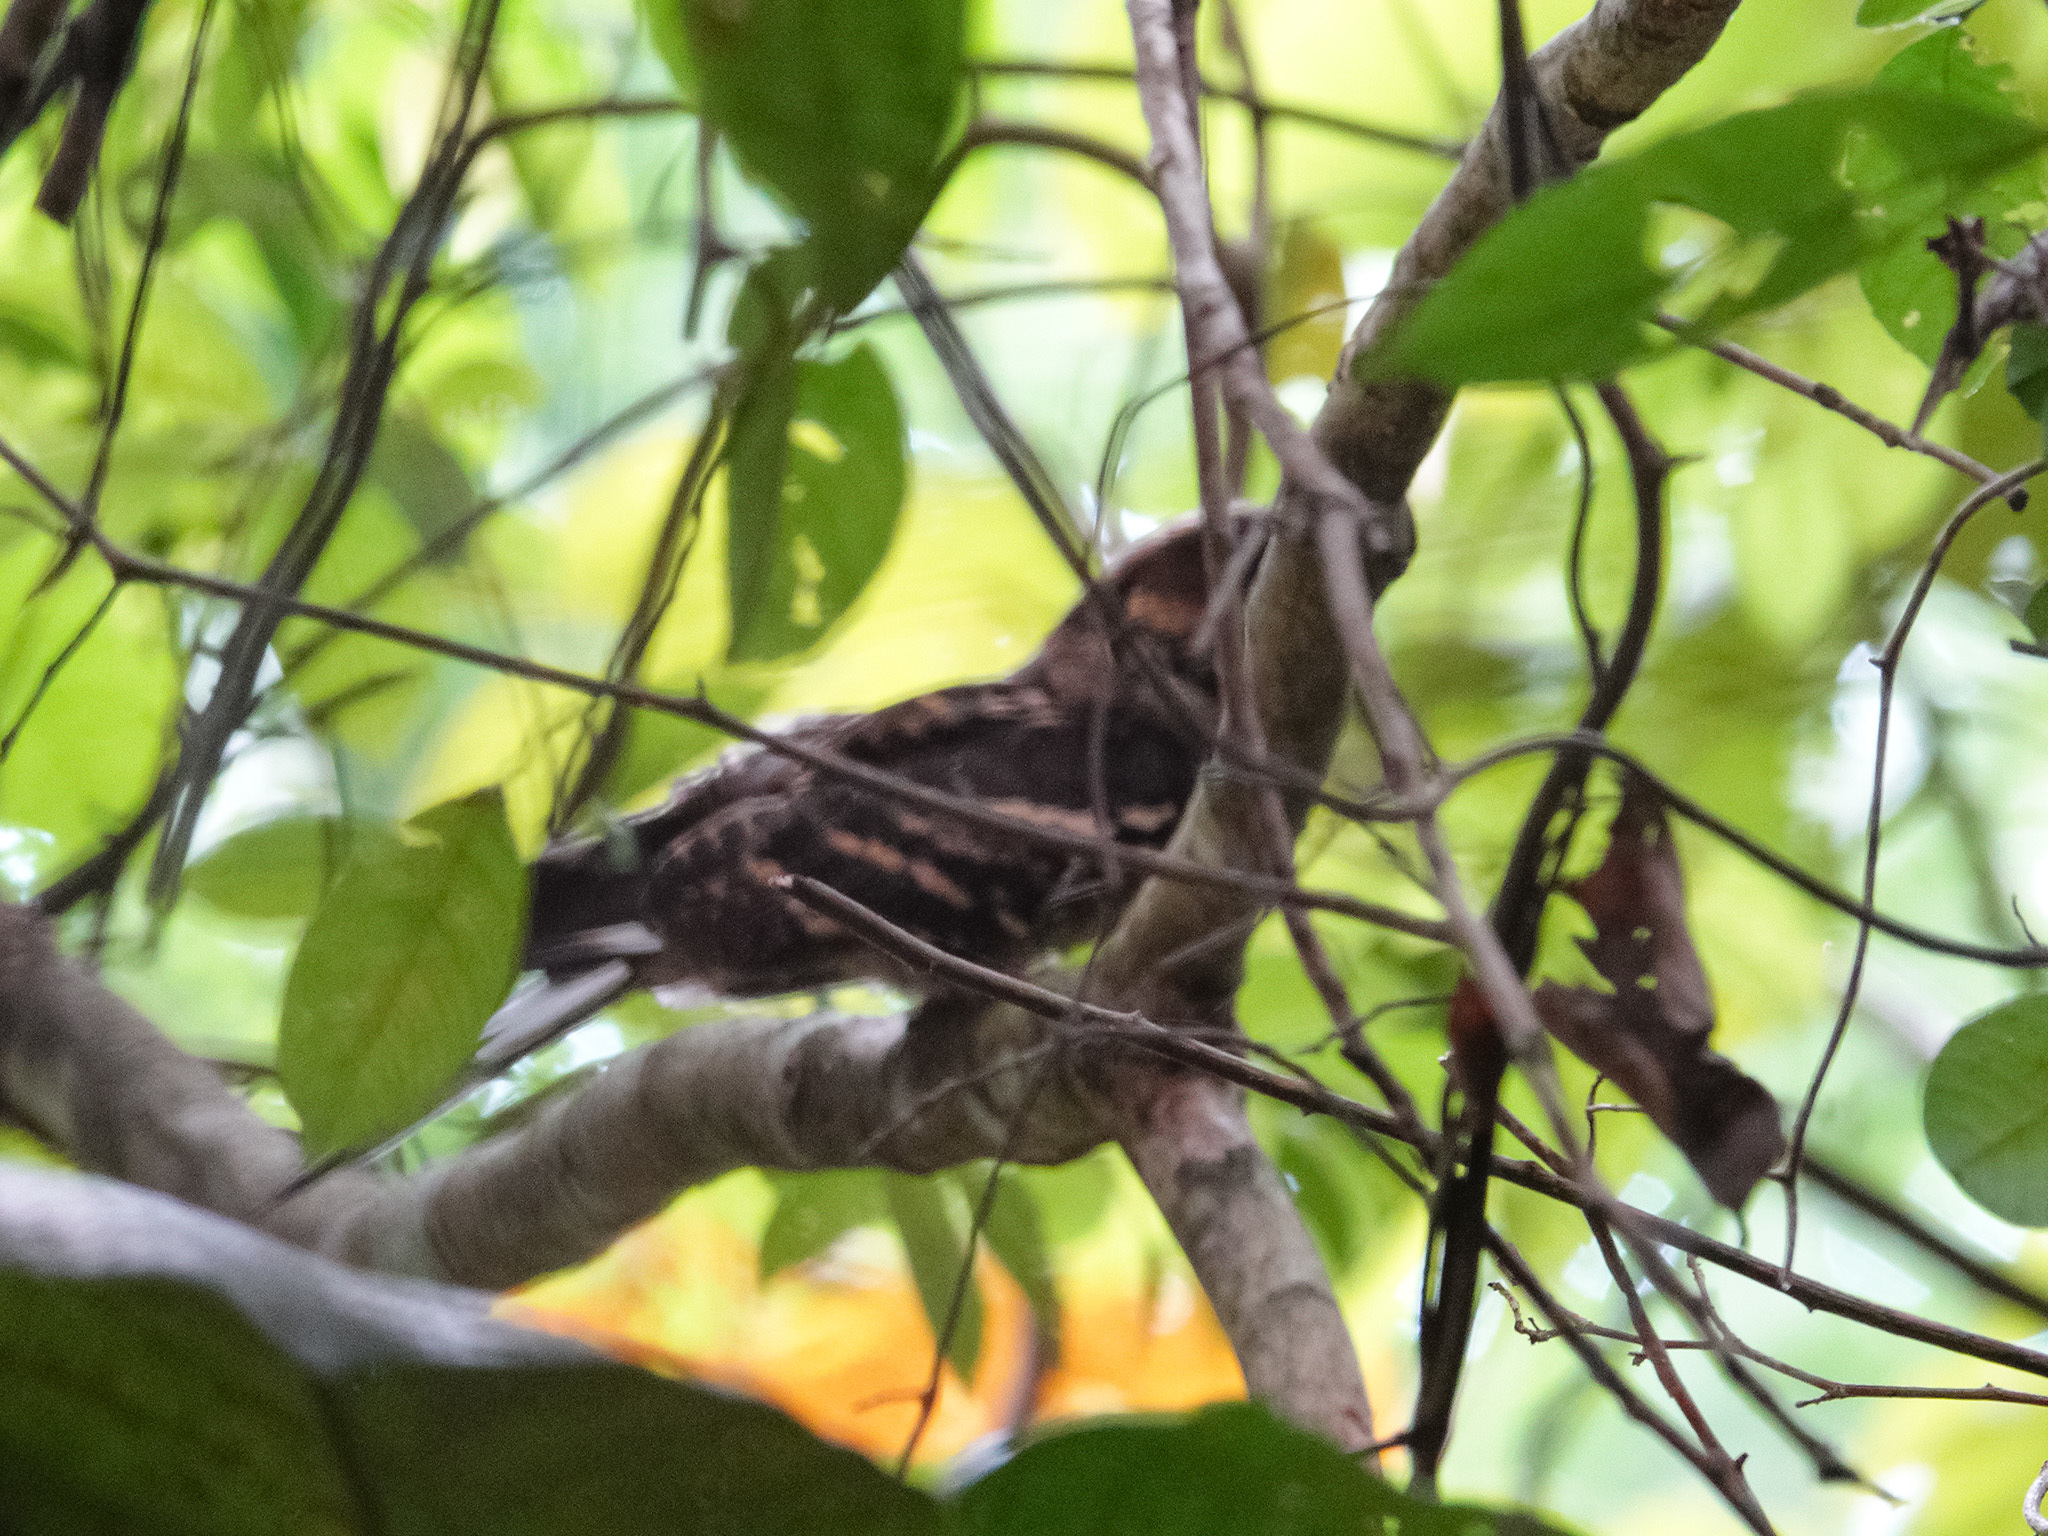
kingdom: Animalia
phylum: Chordata
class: Aves
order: Caprimulgiformes
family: Caprimulgidae
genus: Caprimulgus
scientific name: Caprimulgus macrurus
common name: Large-tailed nightjar
